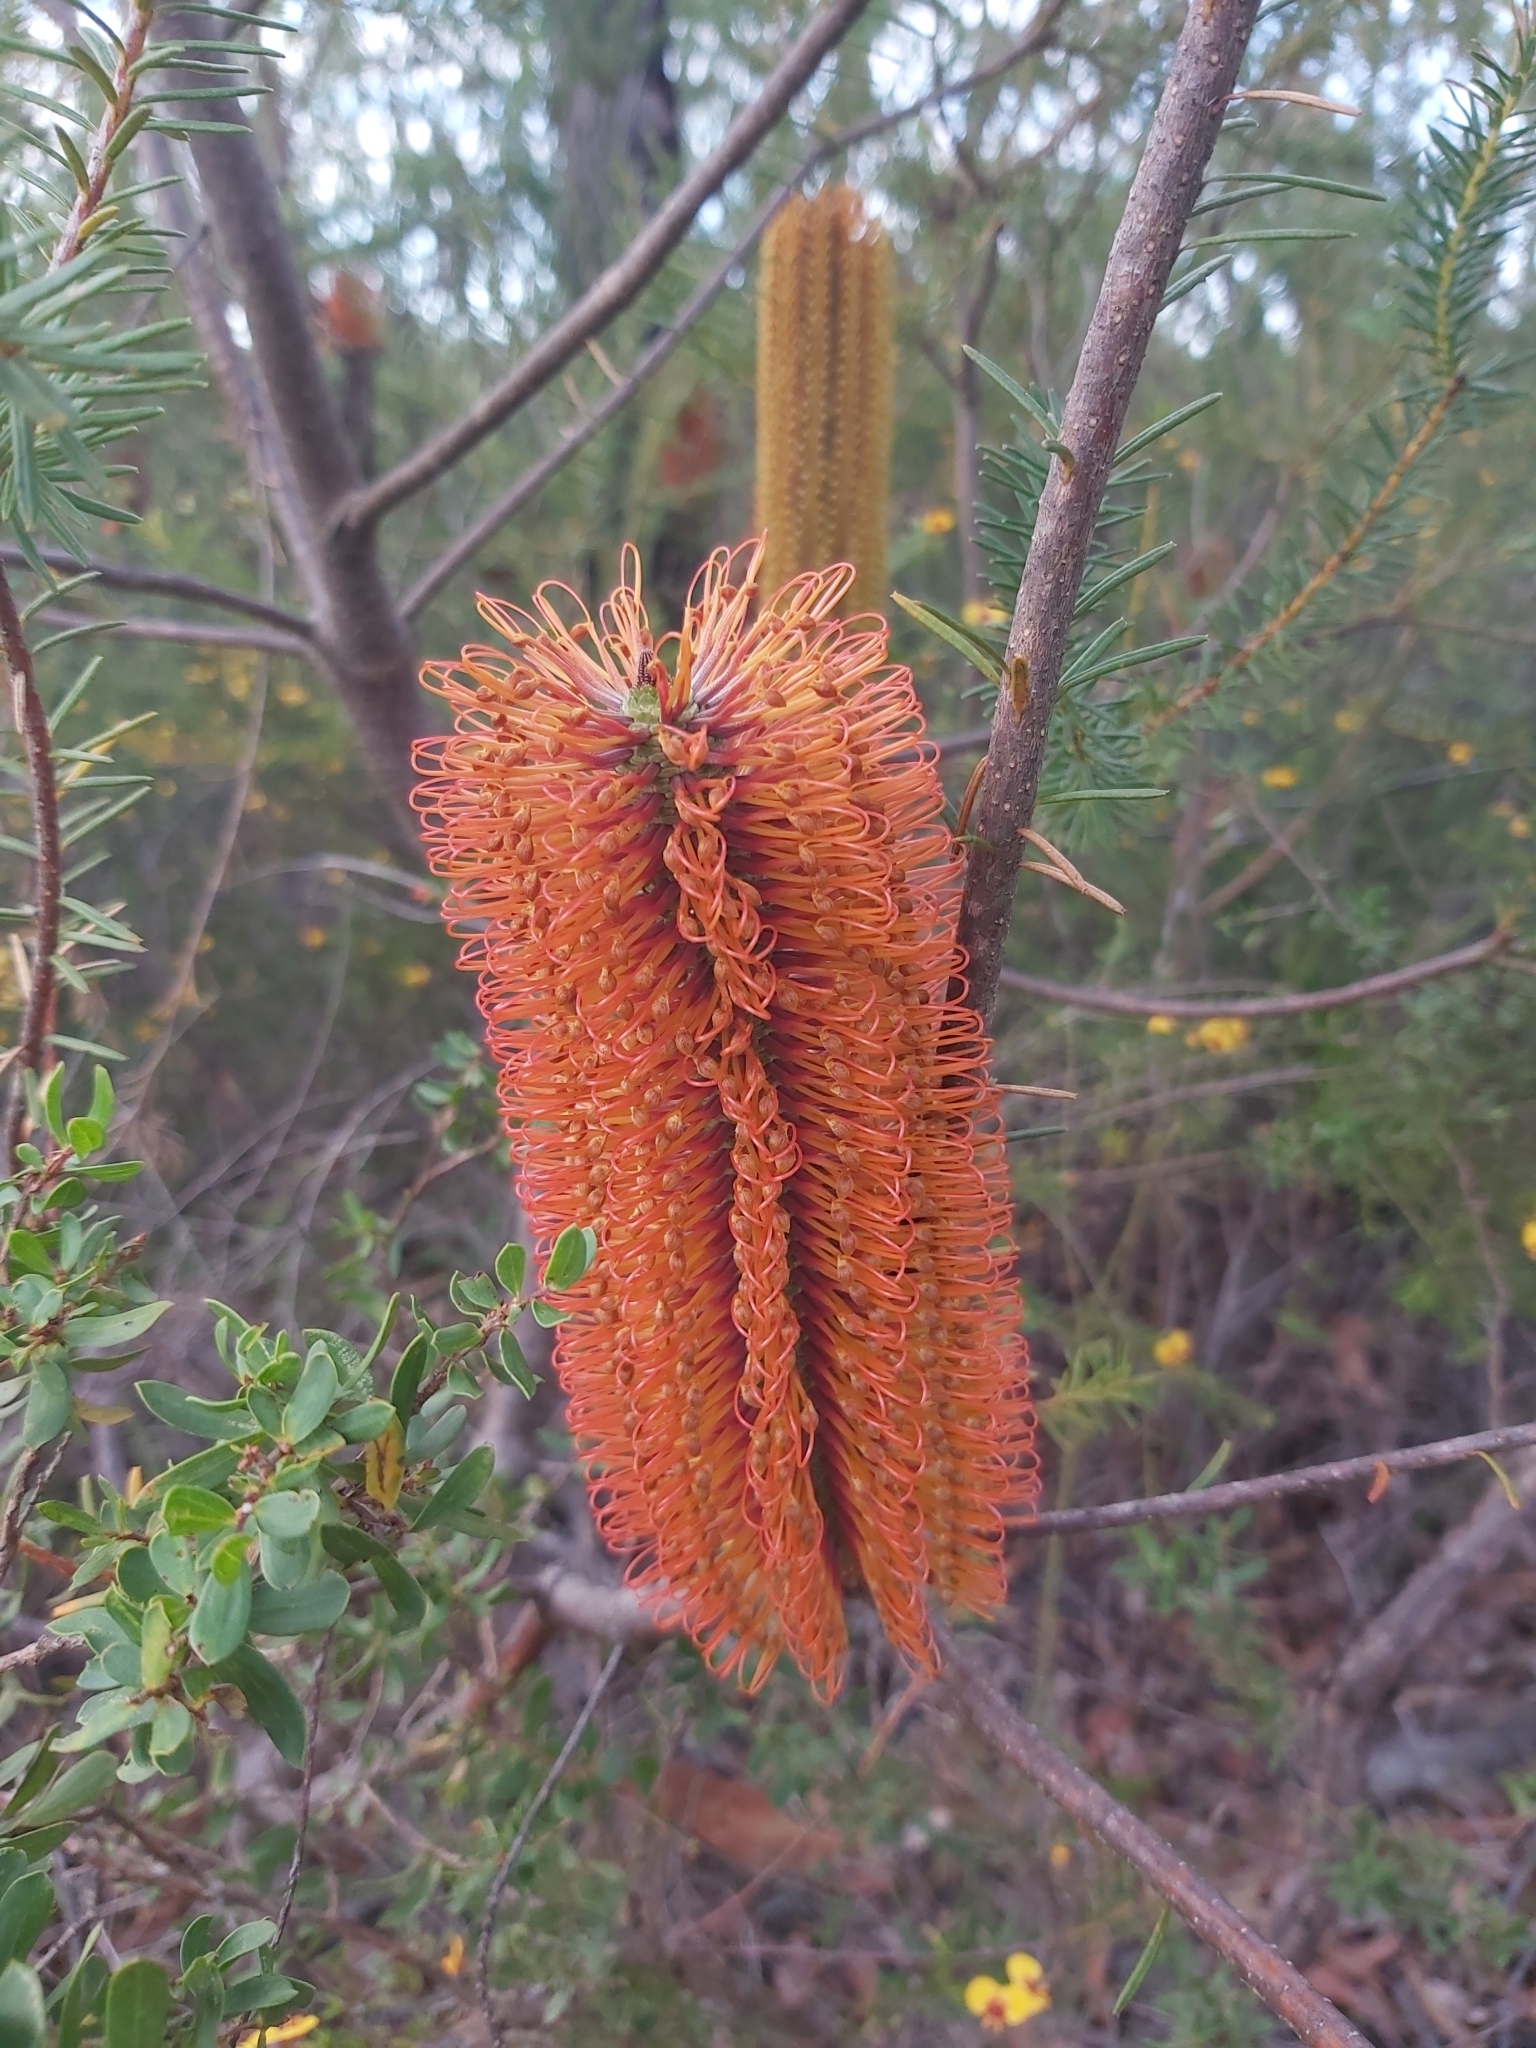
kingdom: Plantae
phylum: Tracheophyta
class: Magnoliopsida
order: Proteales
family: Proteaceae
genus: Banksia
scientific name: Banksia ericifolia
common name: Heath-leaf banksia
